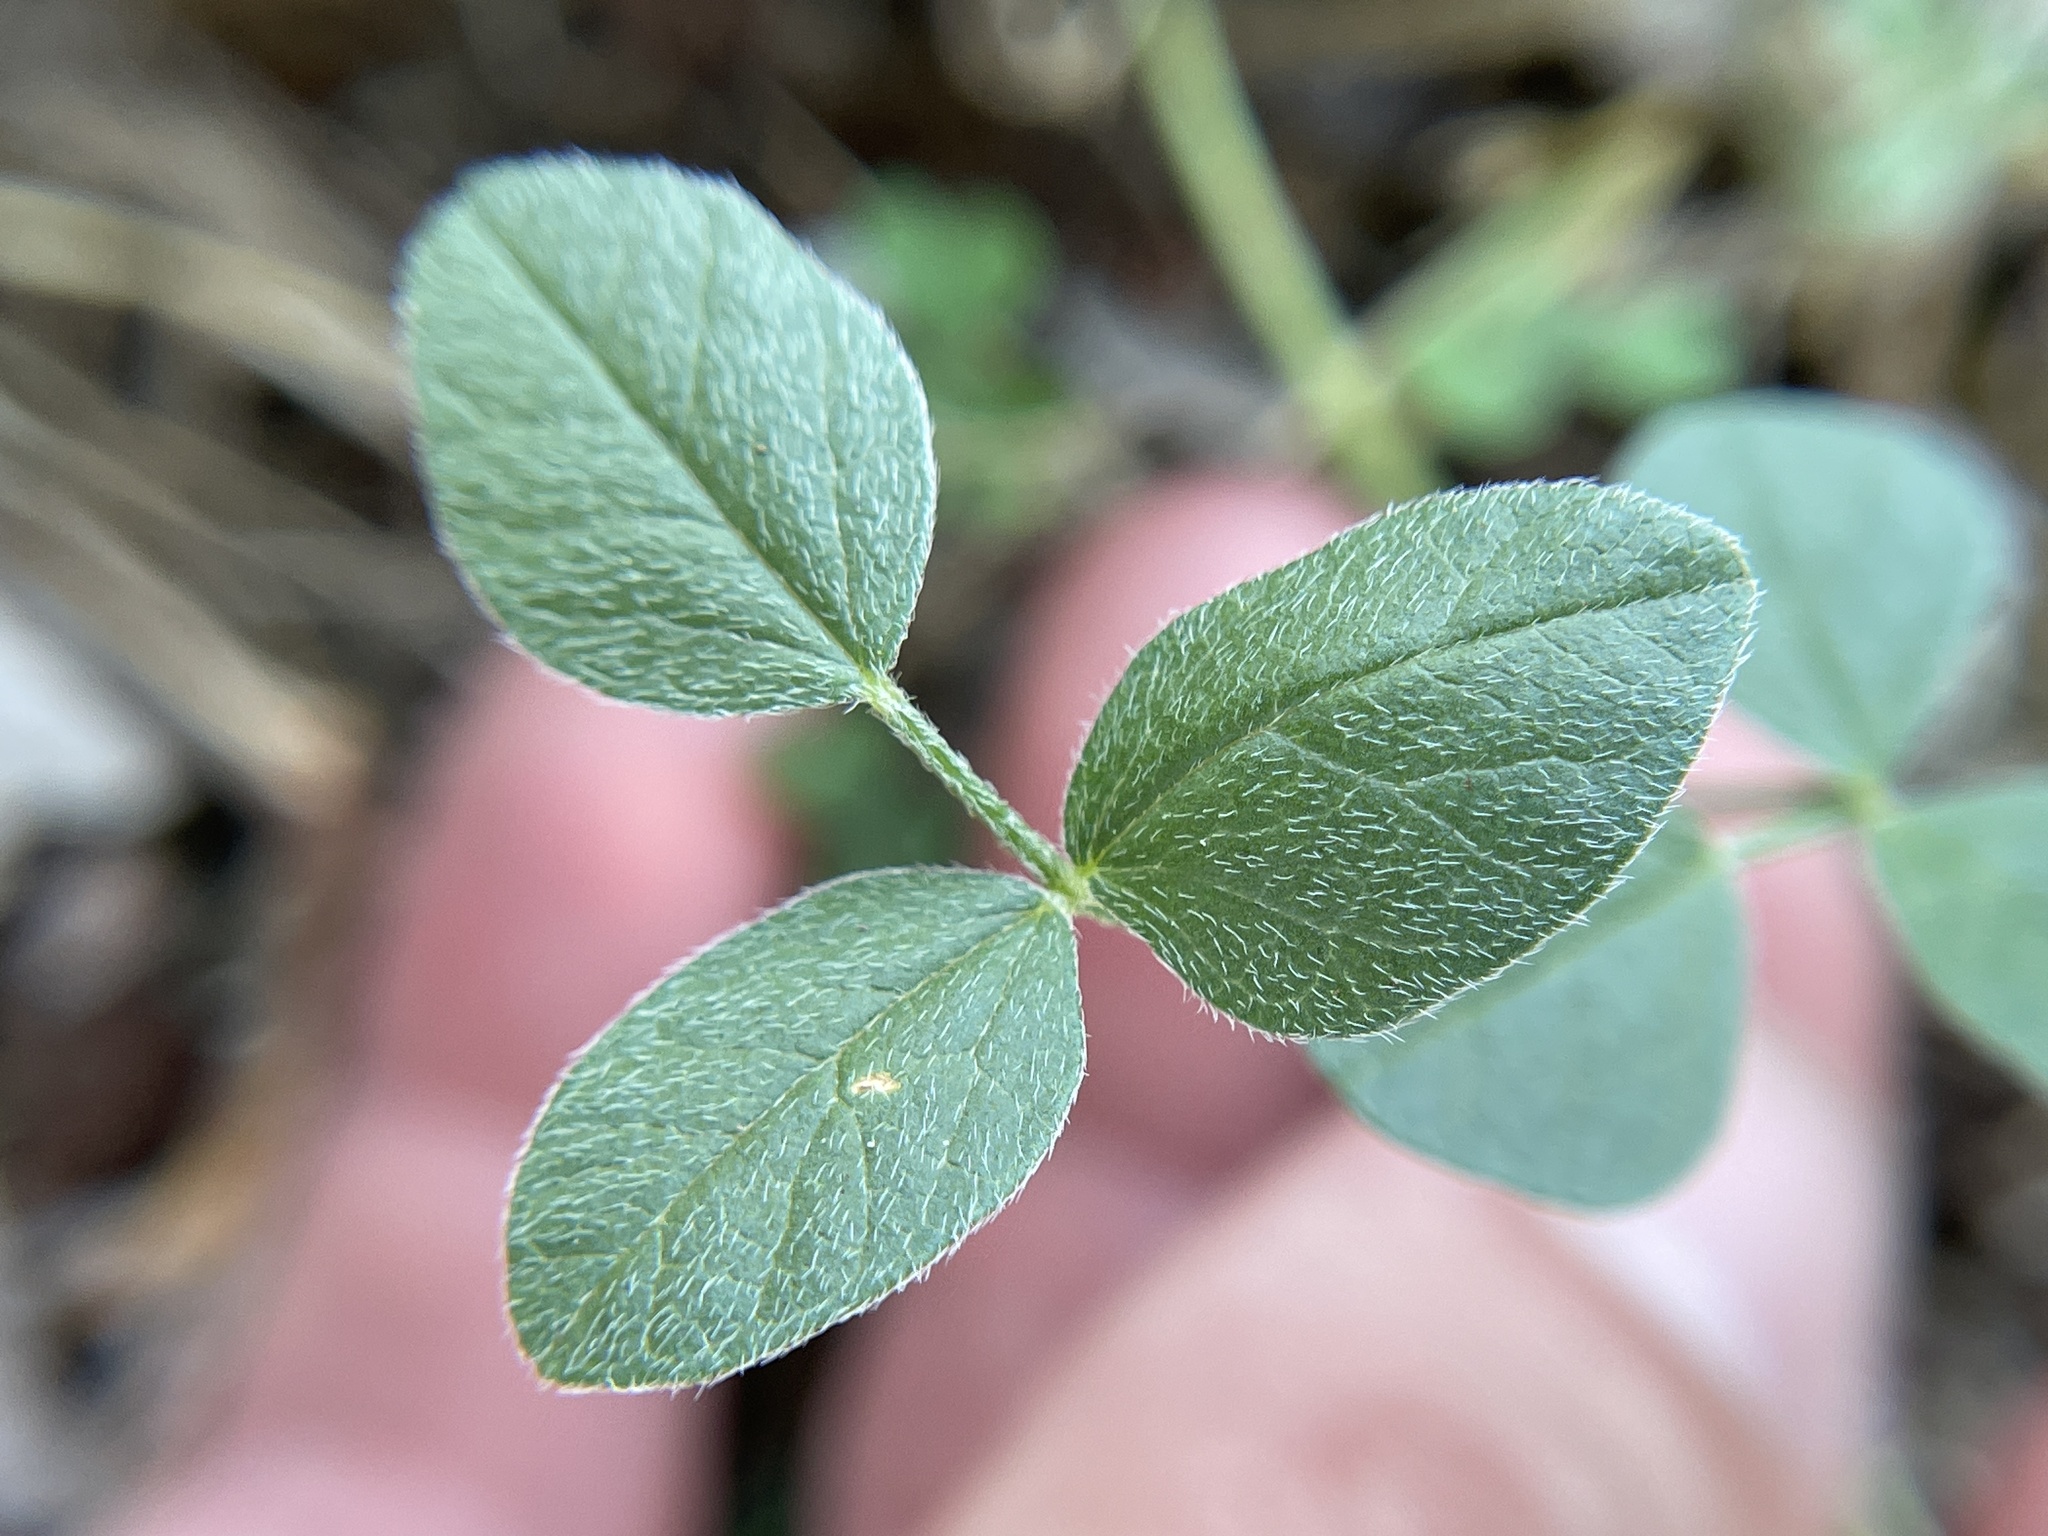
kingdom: Plantae
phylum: Tracheophyta
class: Magnoliopsida
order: Fabales
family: Fabaceae
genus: Pediomelum
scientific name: Pediomelum rhombifolium
